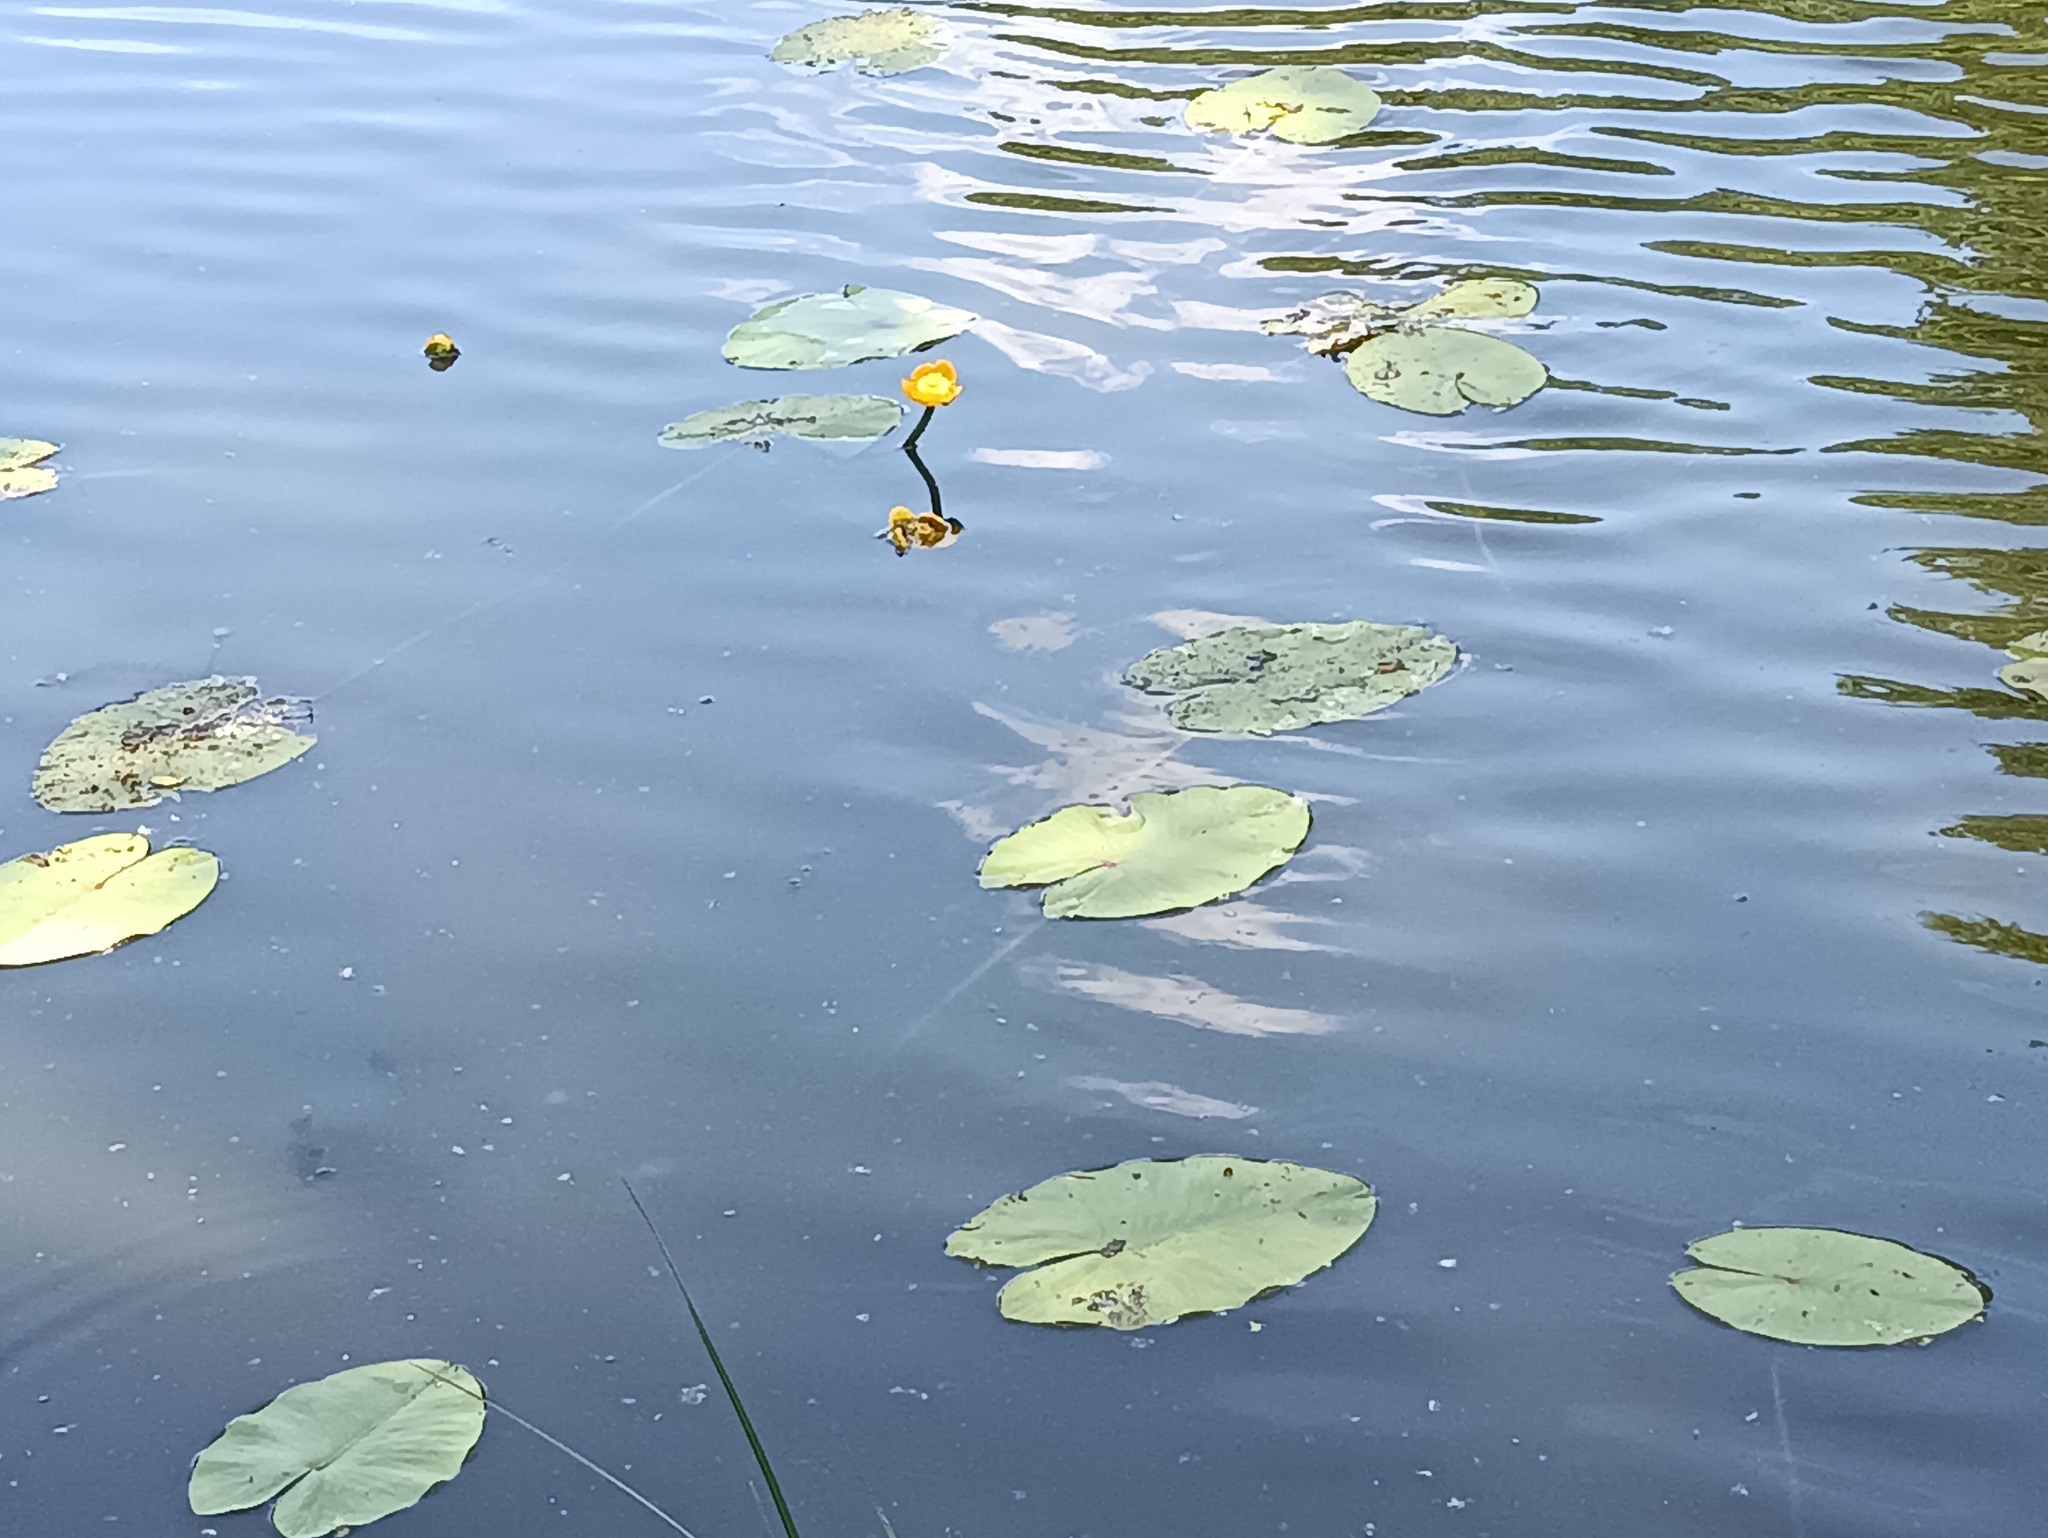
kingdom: Plantae
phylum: Tracheophyta
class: Magnoliopsida
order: Nymphaeales
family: Nymphaeaceae
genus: Nuphar
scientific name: Nuphar lutea
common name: Yellow water-lily
